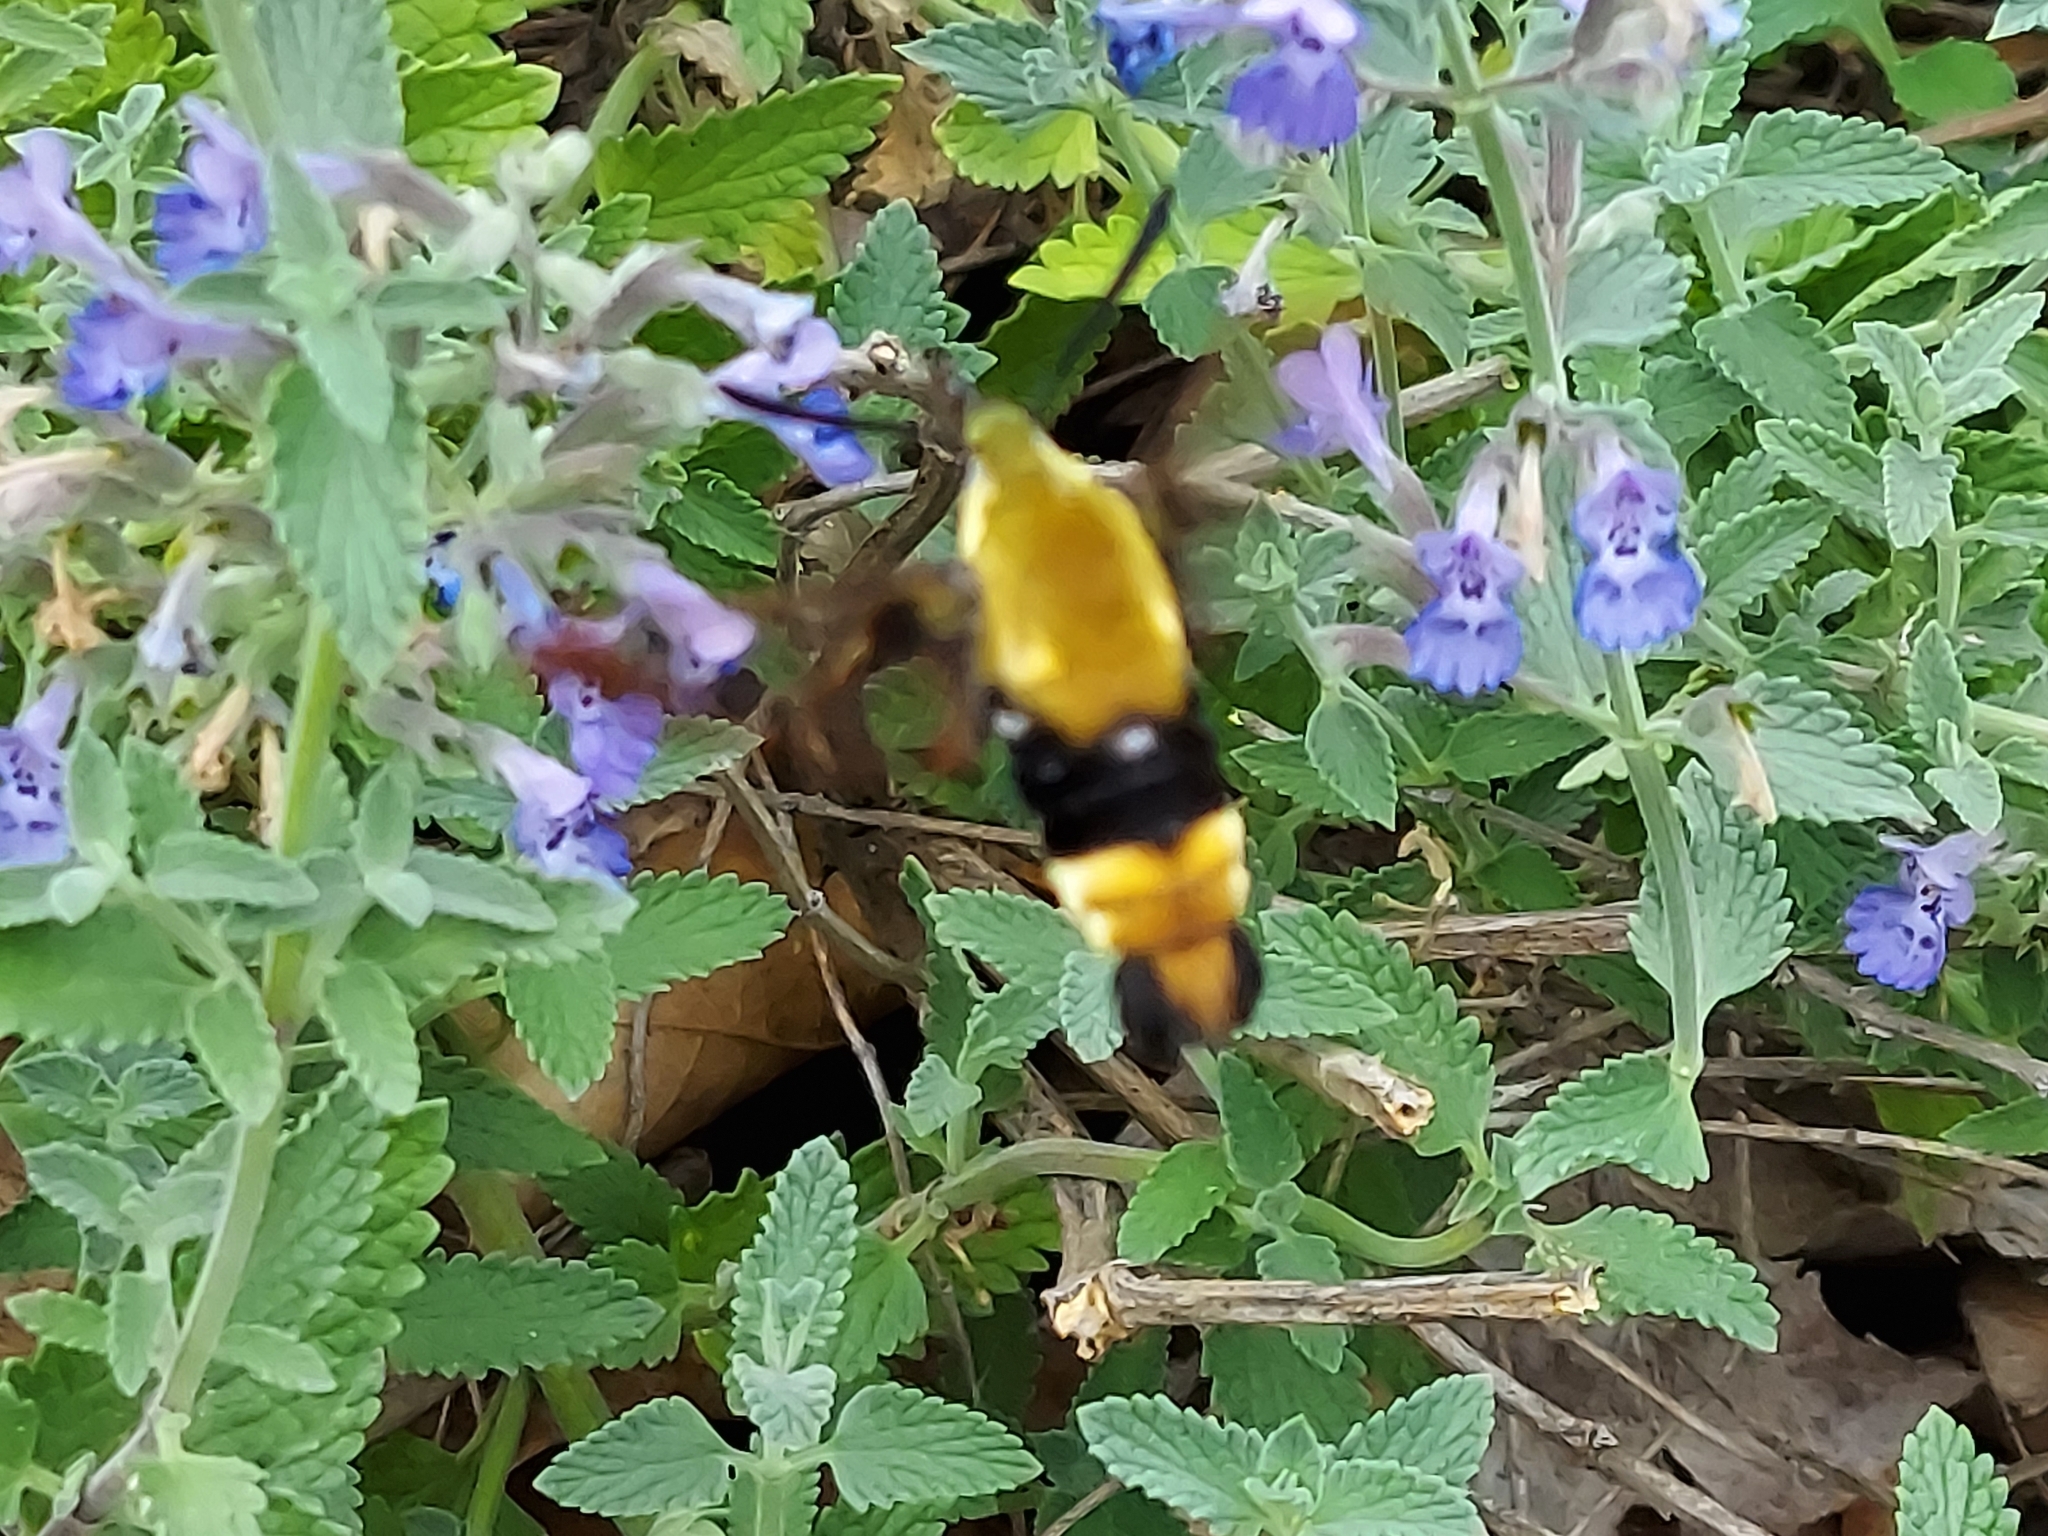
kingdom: Animalia
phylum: Arthropoda
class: Insecta
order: Lepidoptera
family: Sphingidae
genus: Hemaris
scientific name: Hemaris diffinis
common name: Bumblebee moth
